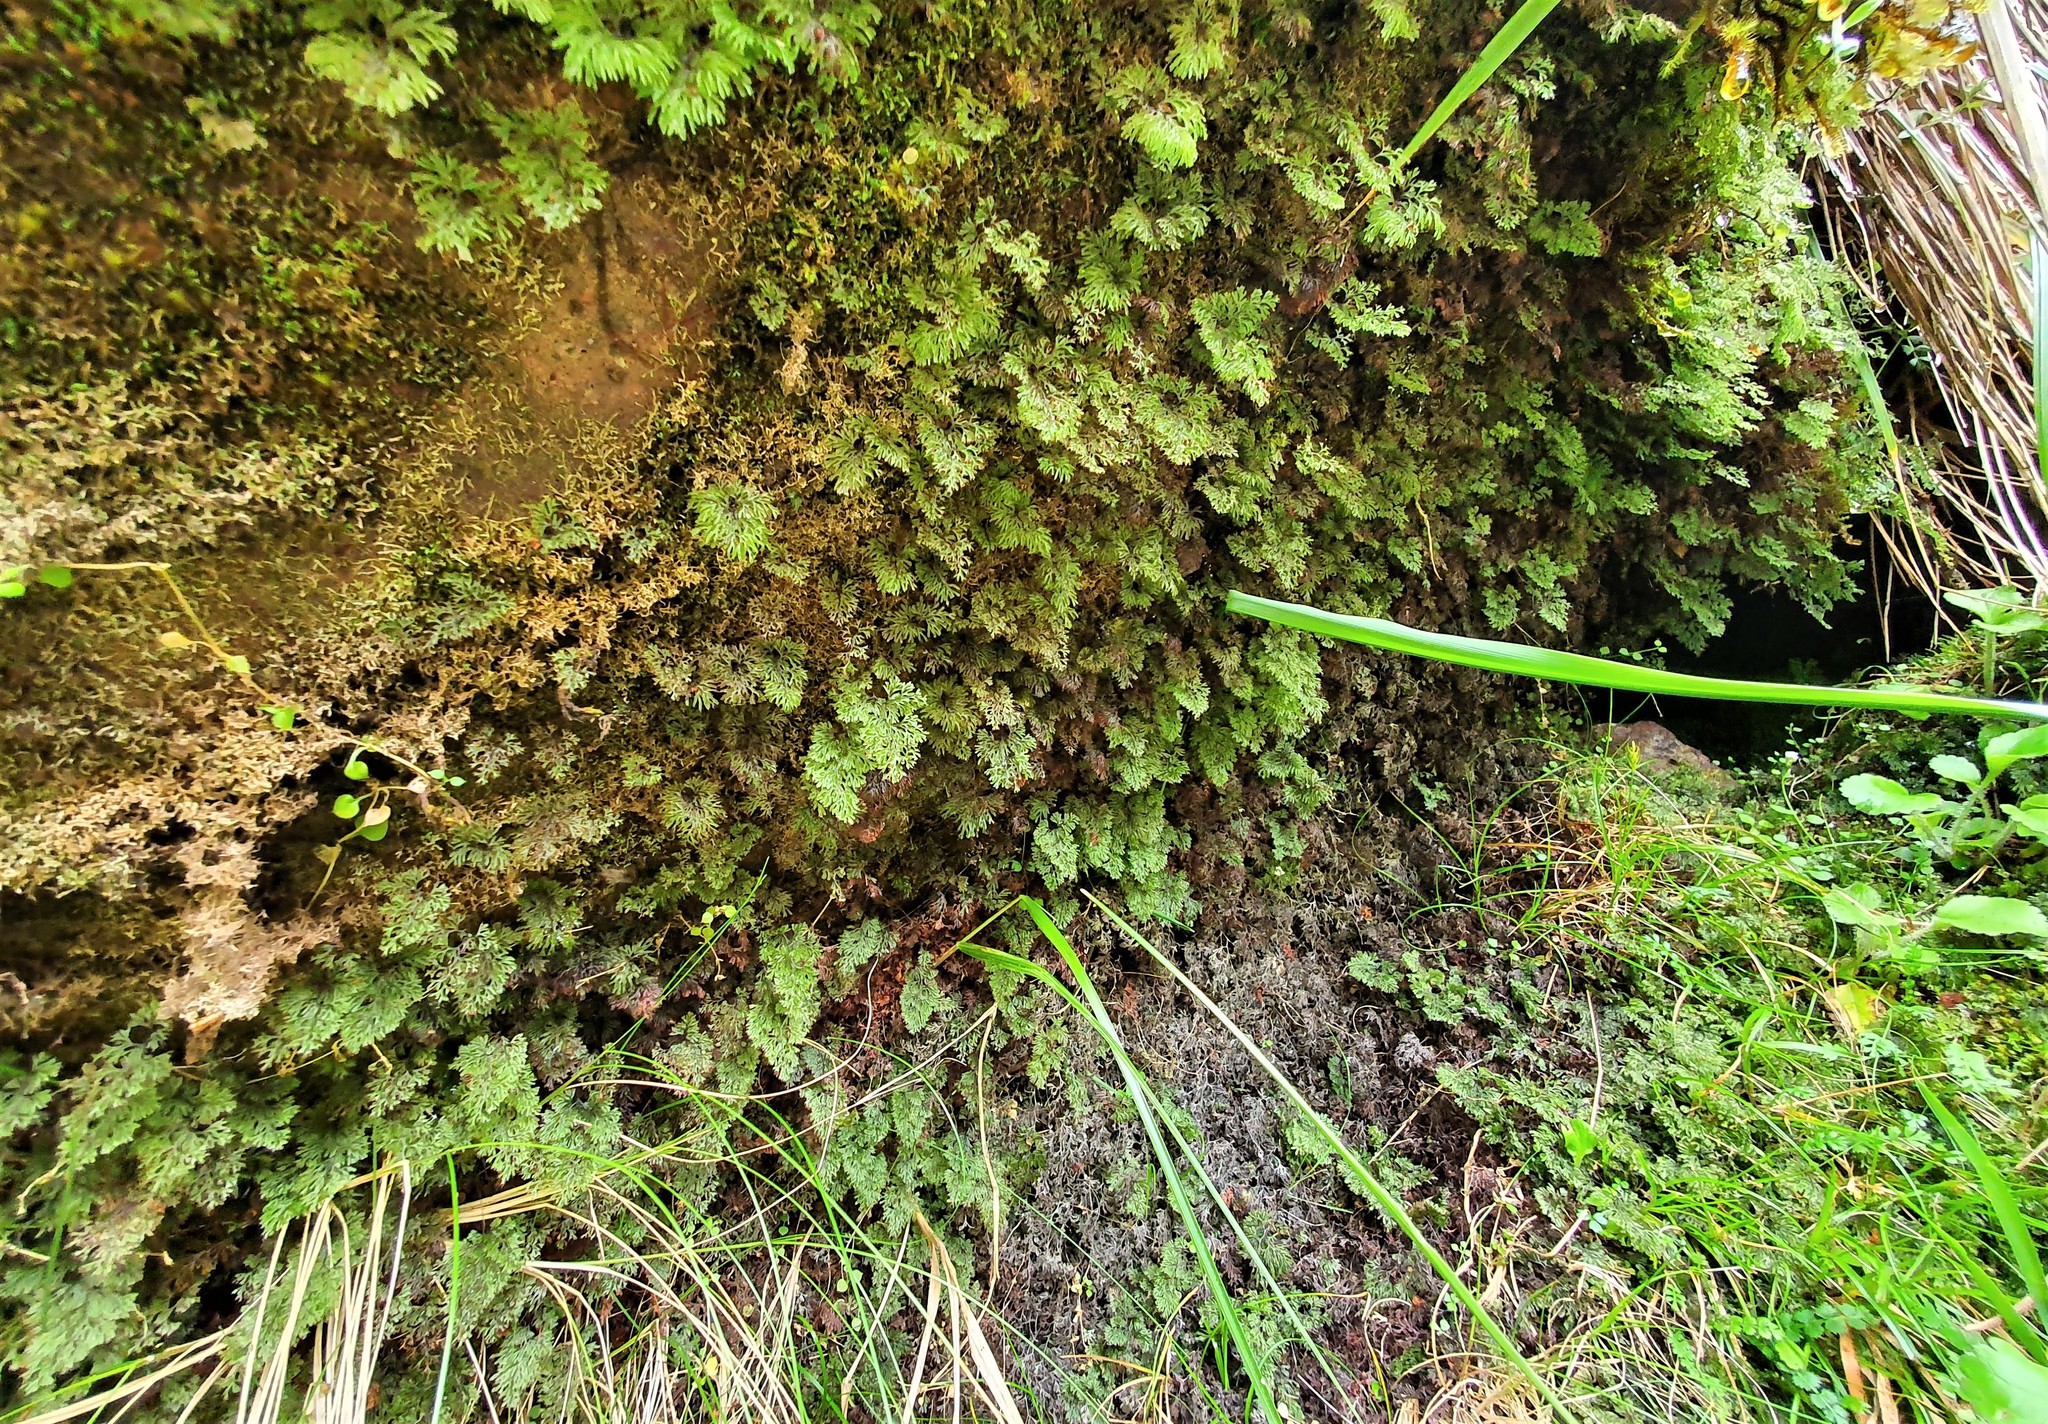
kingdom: Plantae
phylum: Tracheophyta
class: Polypodiopsida
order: Hymenophyllales
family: Hymenophyllaceae
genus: Hymenophyllum
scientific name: Hymenophyllum multifidum
